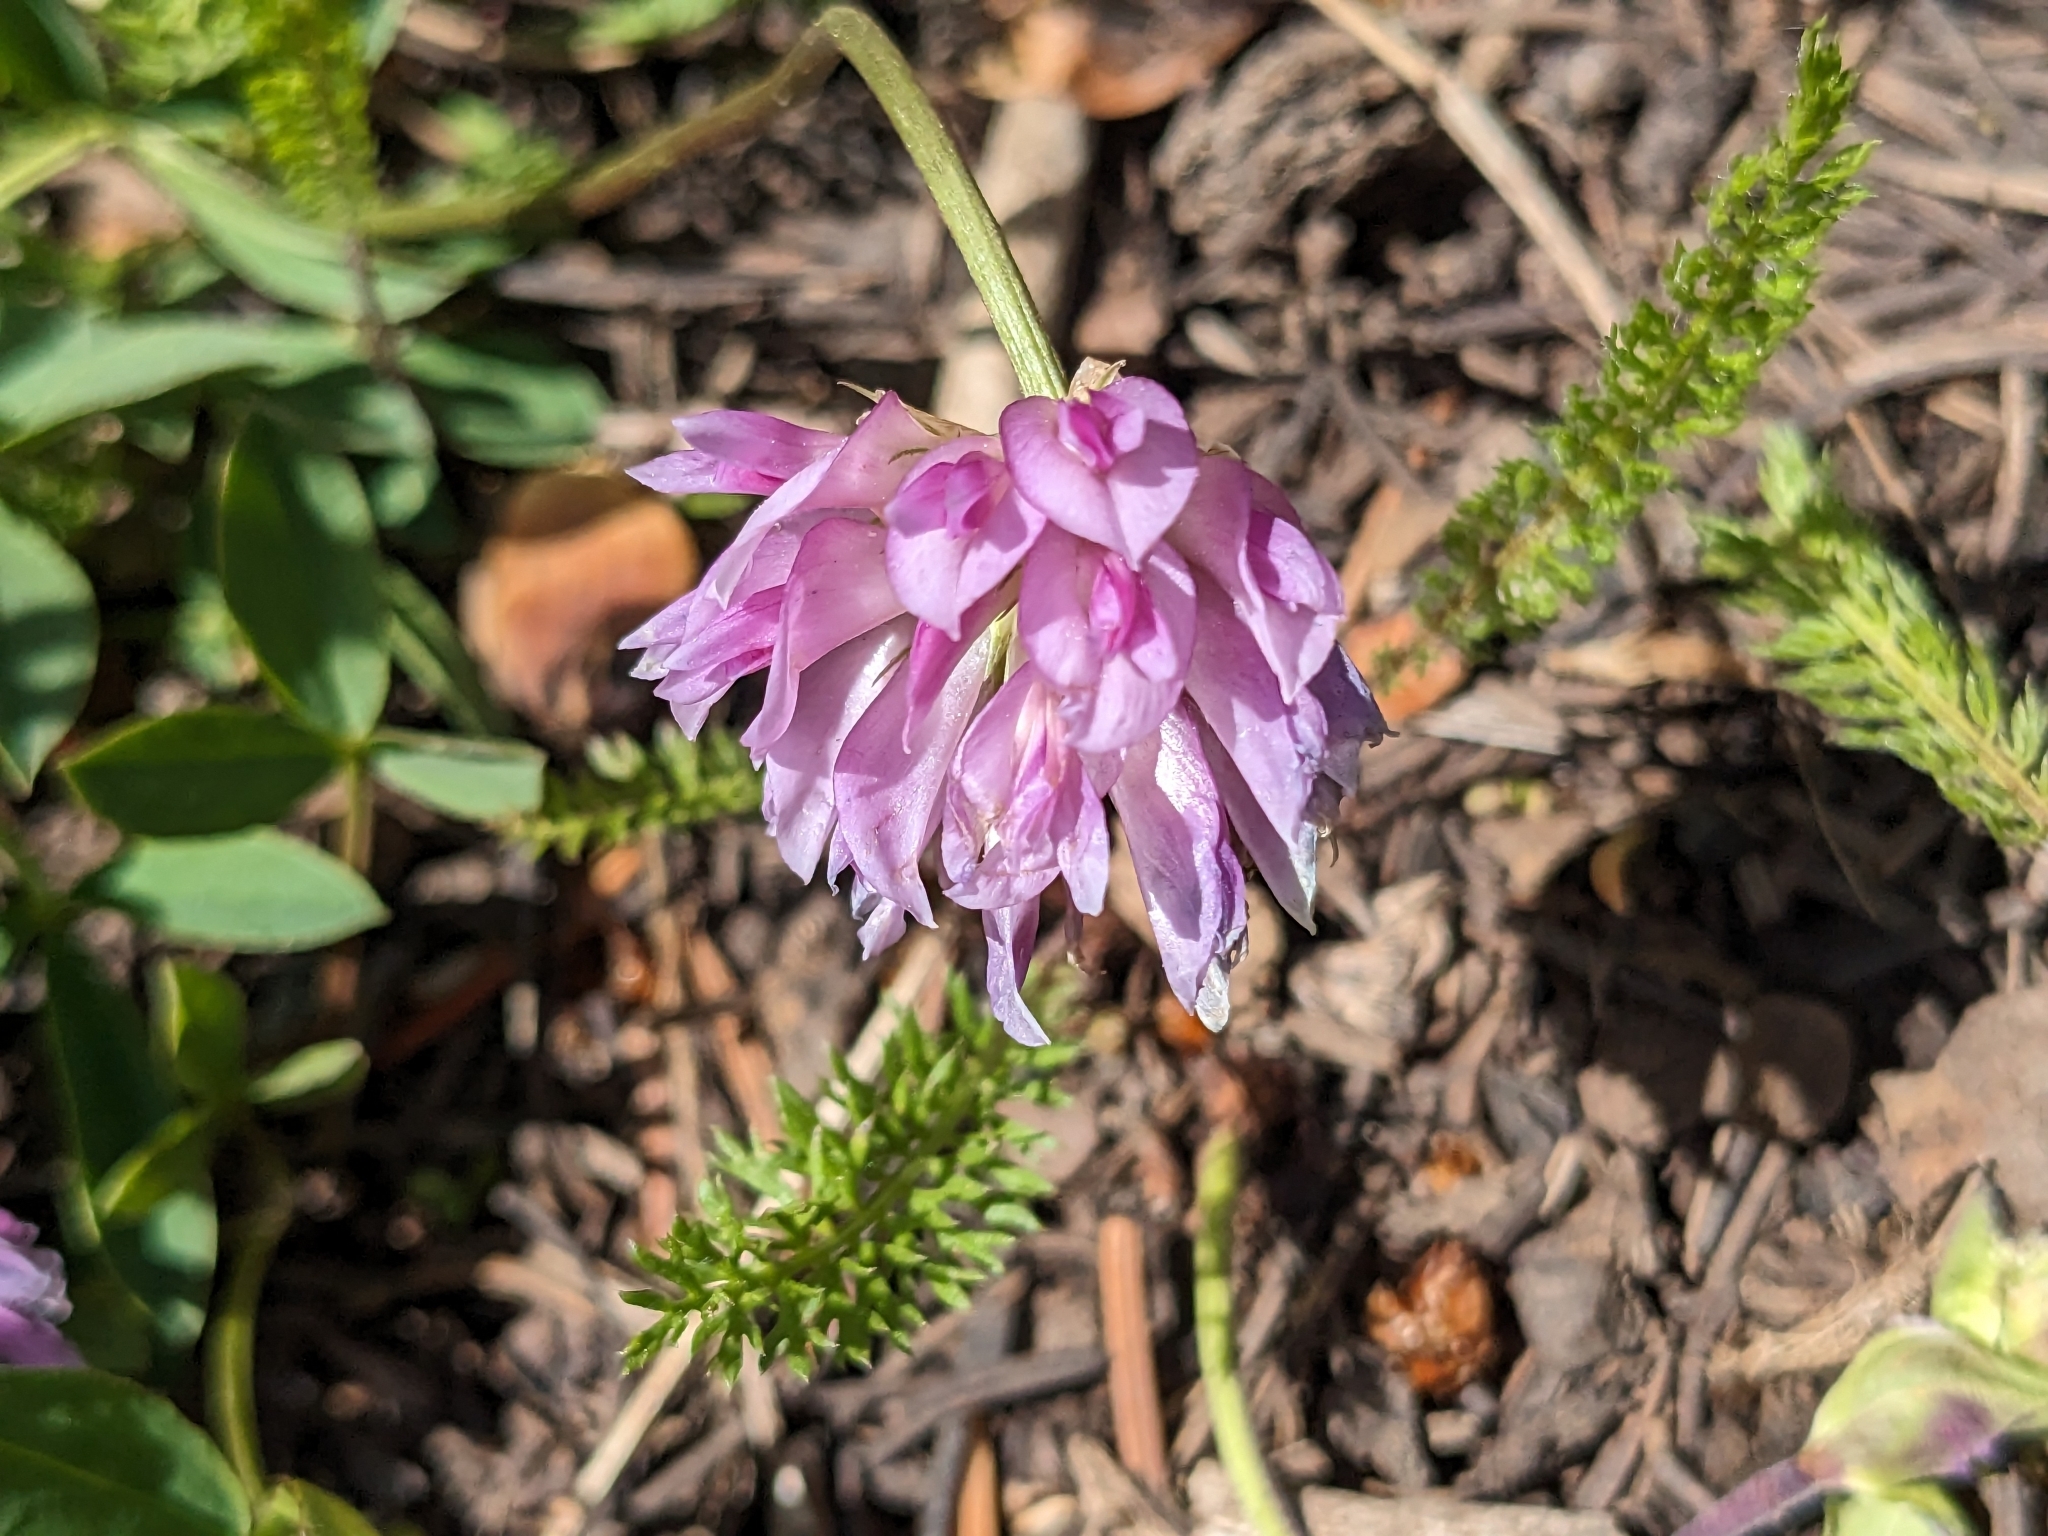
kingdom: Plantae
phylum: Tracheophyta
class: Magnoliopsida
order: Fabales
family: Fabaceae
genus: Trifolium
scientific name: Trifolium parryi
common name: Parry's clover
